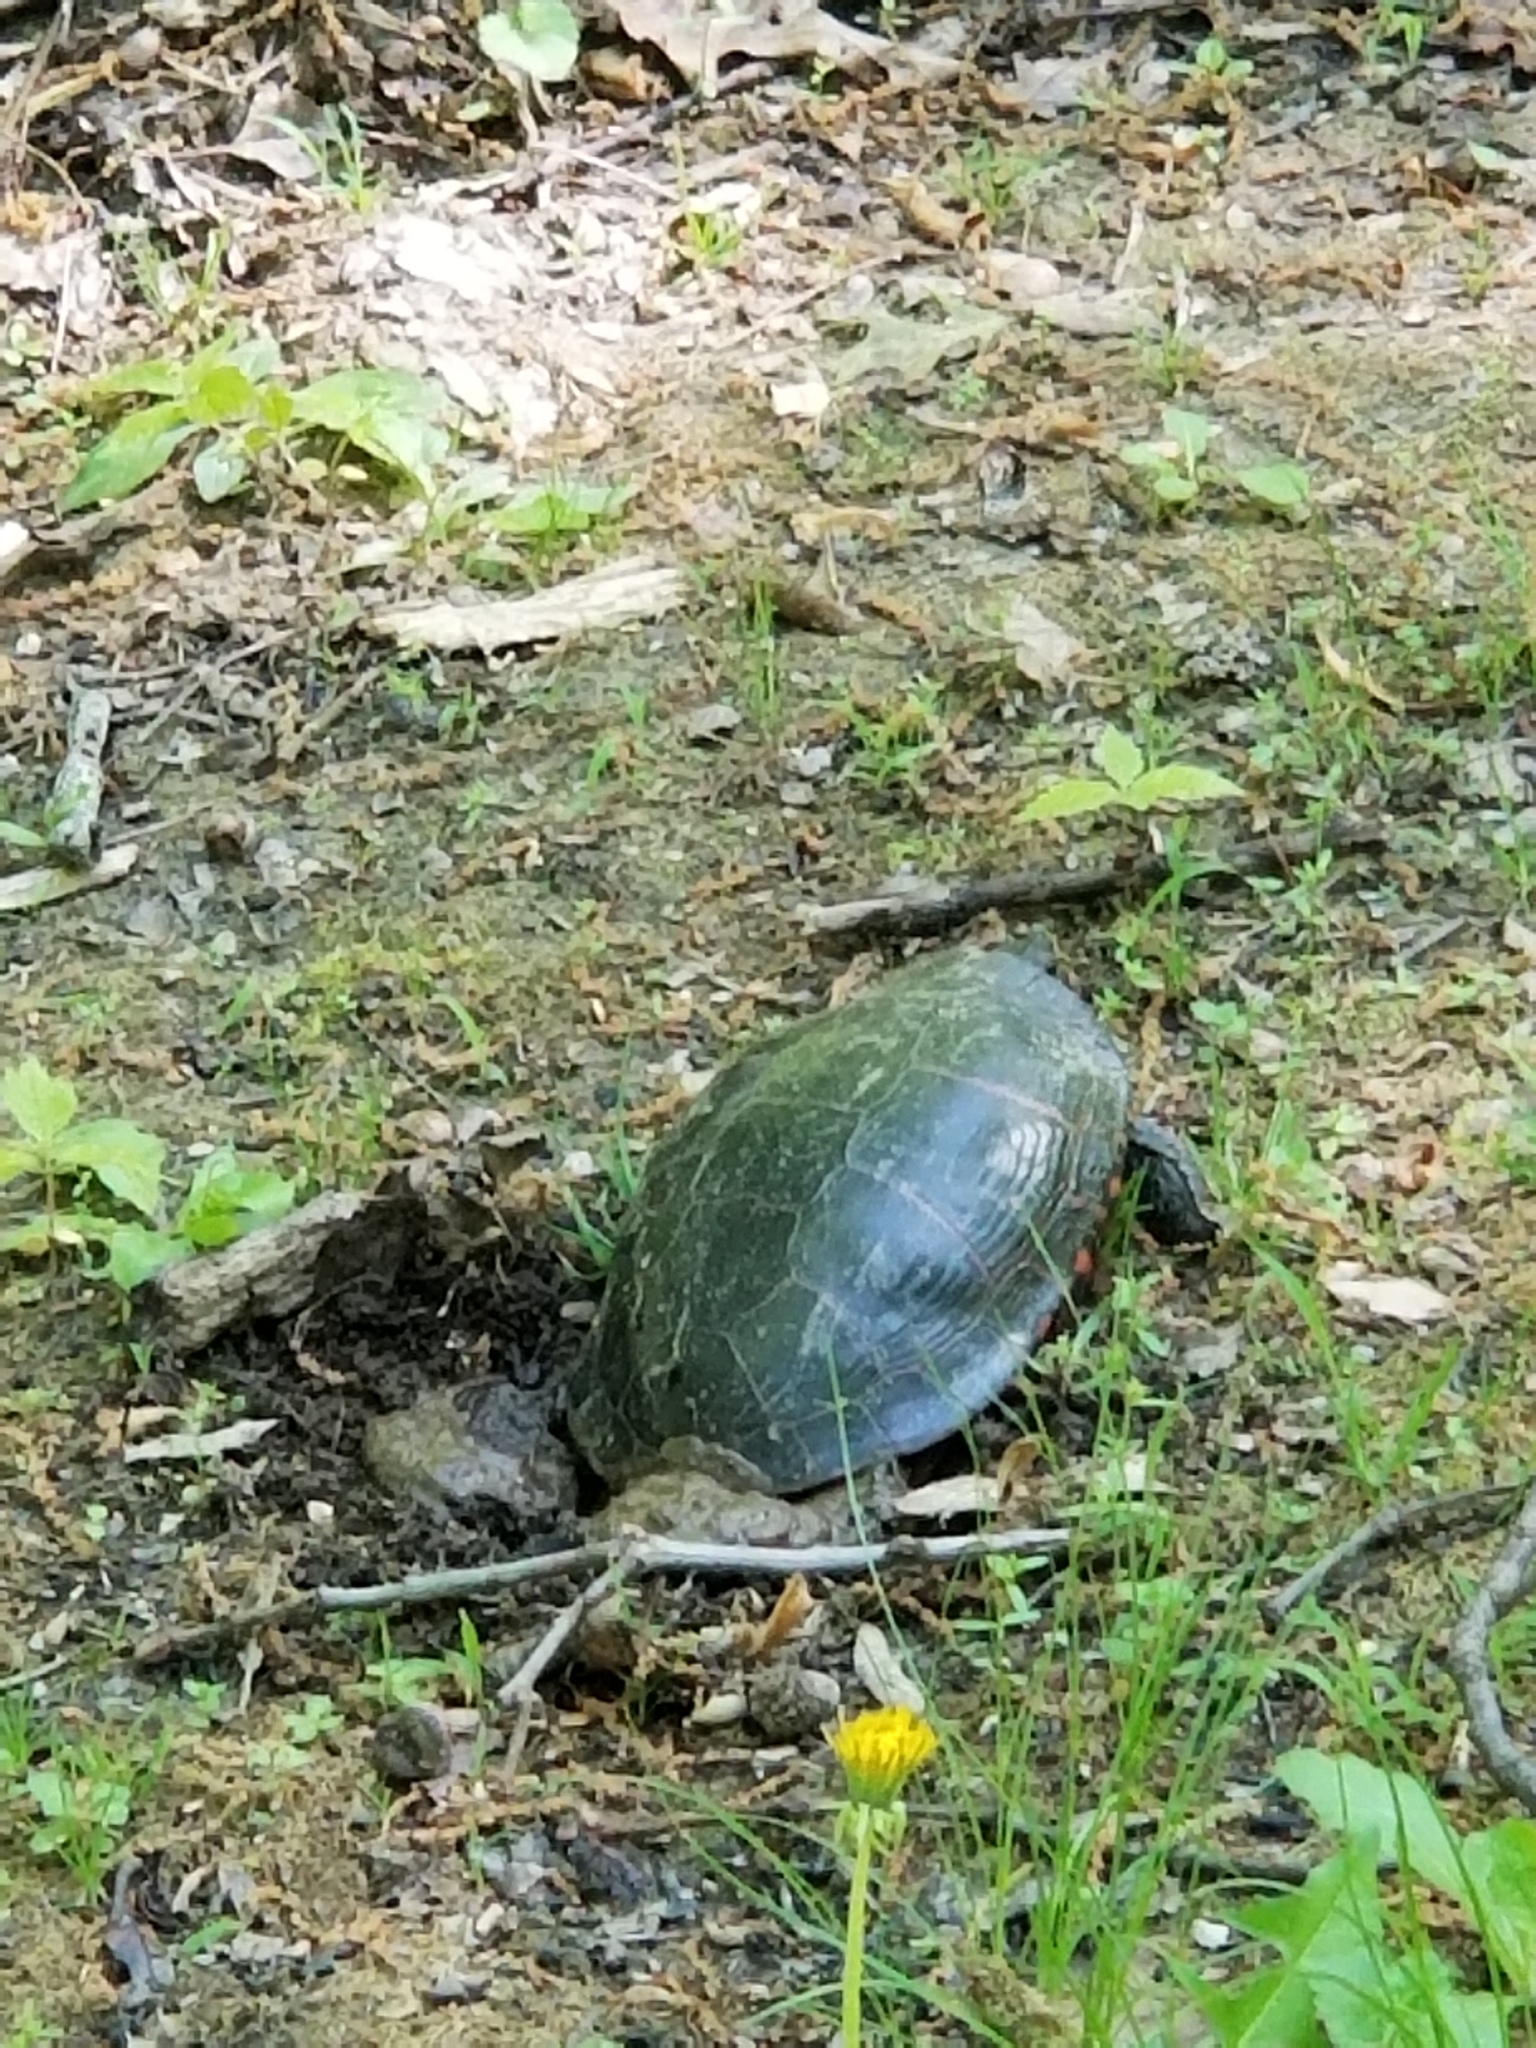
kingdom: Animalia
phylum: Chordata
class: Testudines
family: Emydidae
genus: Chrysemys
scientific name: Chrysemys picta
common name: Painted turtle
